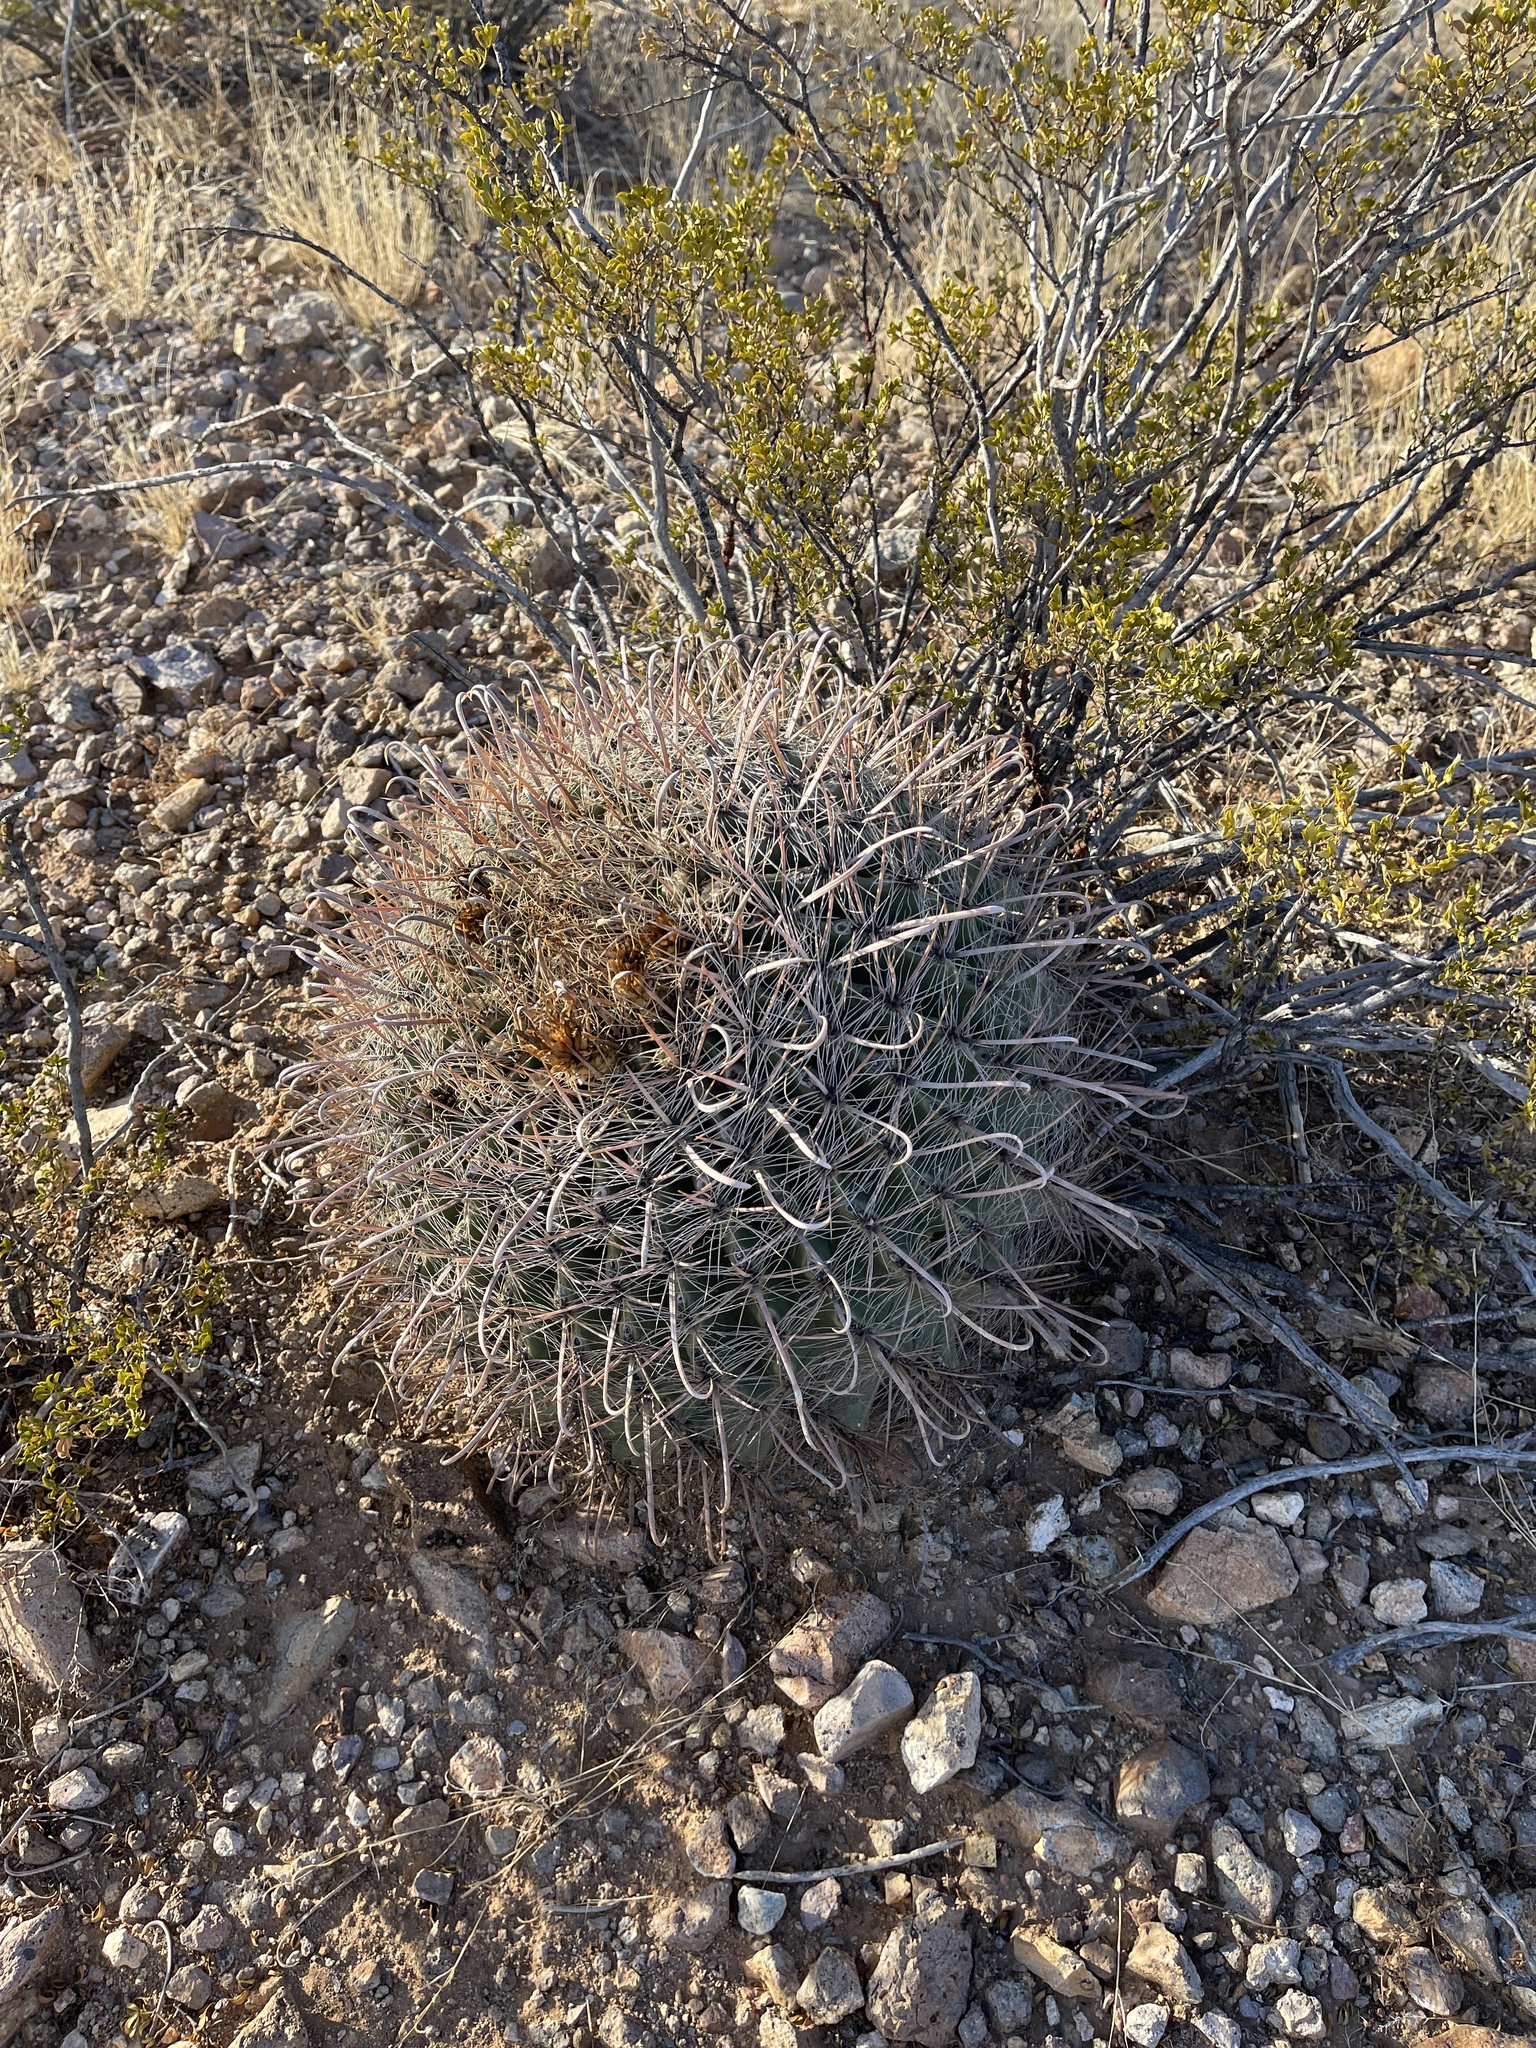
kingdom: Plantae
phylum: Tracheophyta
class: Magnoliopsida
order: Caryophyllales
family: Cactaceae
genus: Ferocactus
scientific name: Ferocactus wislizeni
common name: Candy barrel cactus
